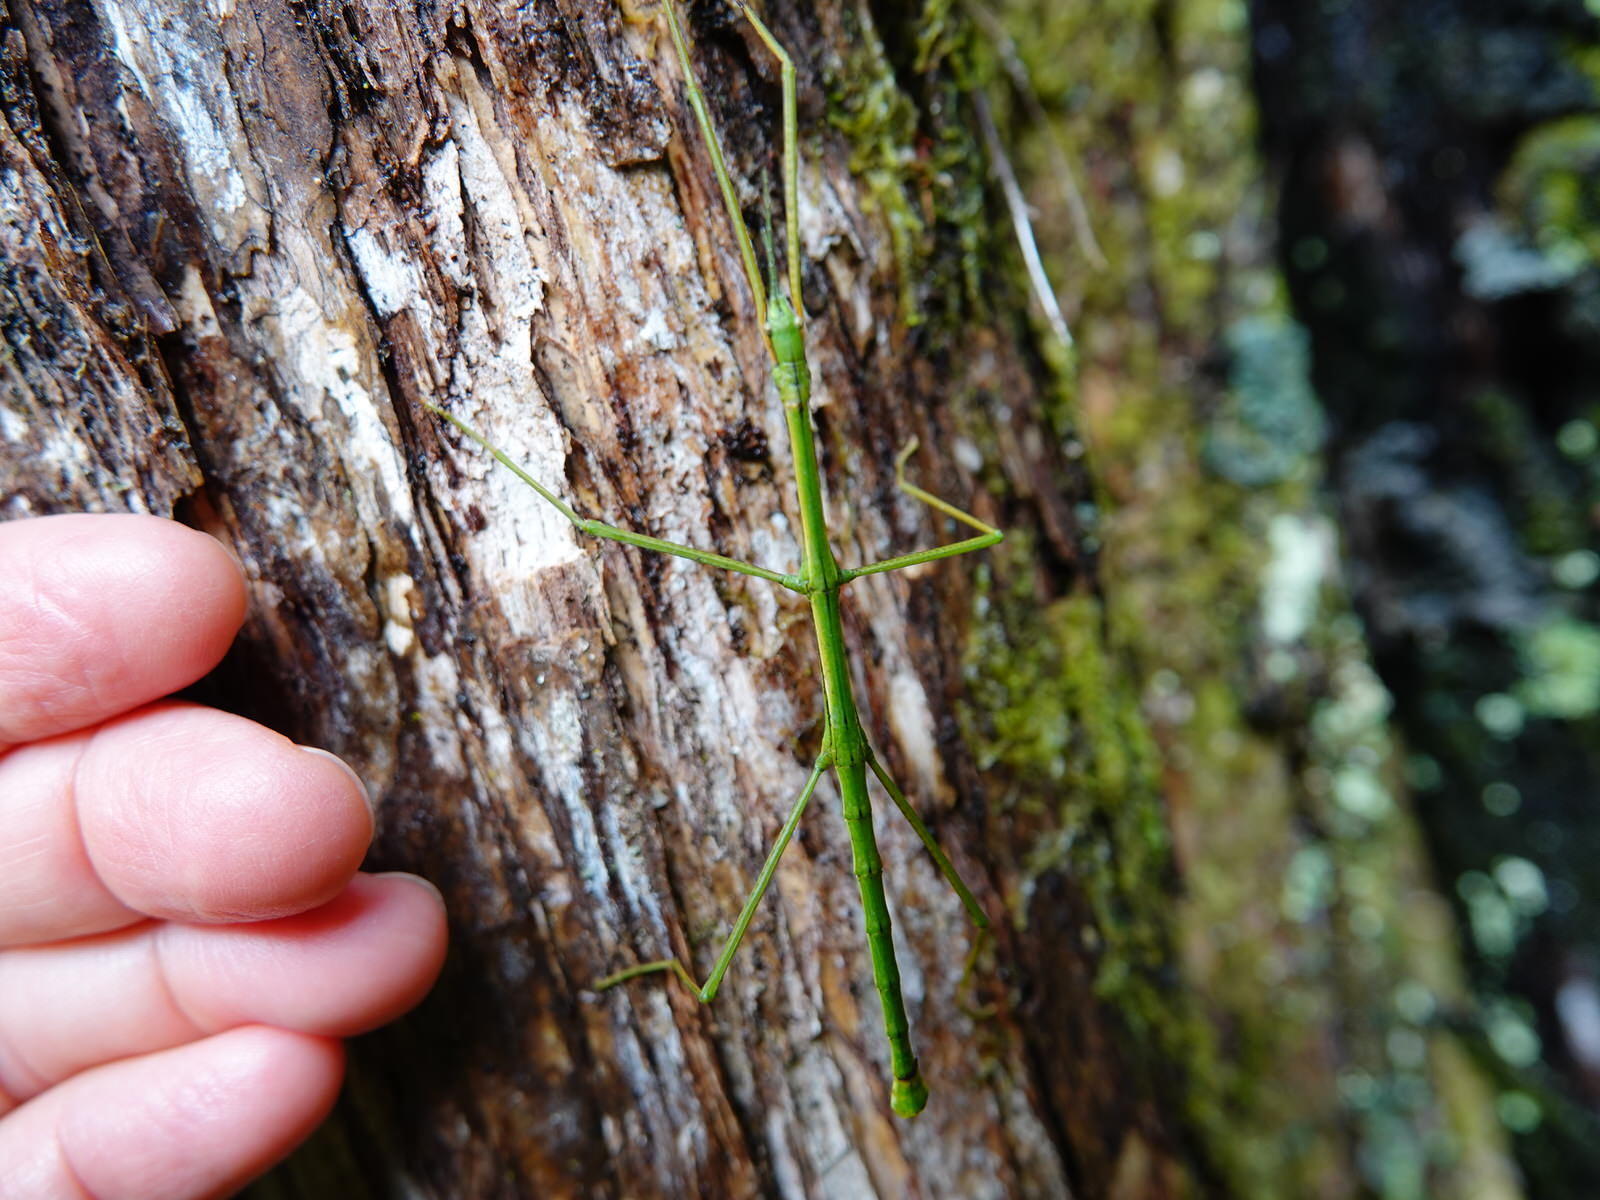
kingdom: Animalia
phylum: Arthropoda
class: Insecta
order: Phasmida
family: Phasmatidae
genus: Clitarchus
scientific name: Clitarchus hookeri
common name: Smooth stick insect
